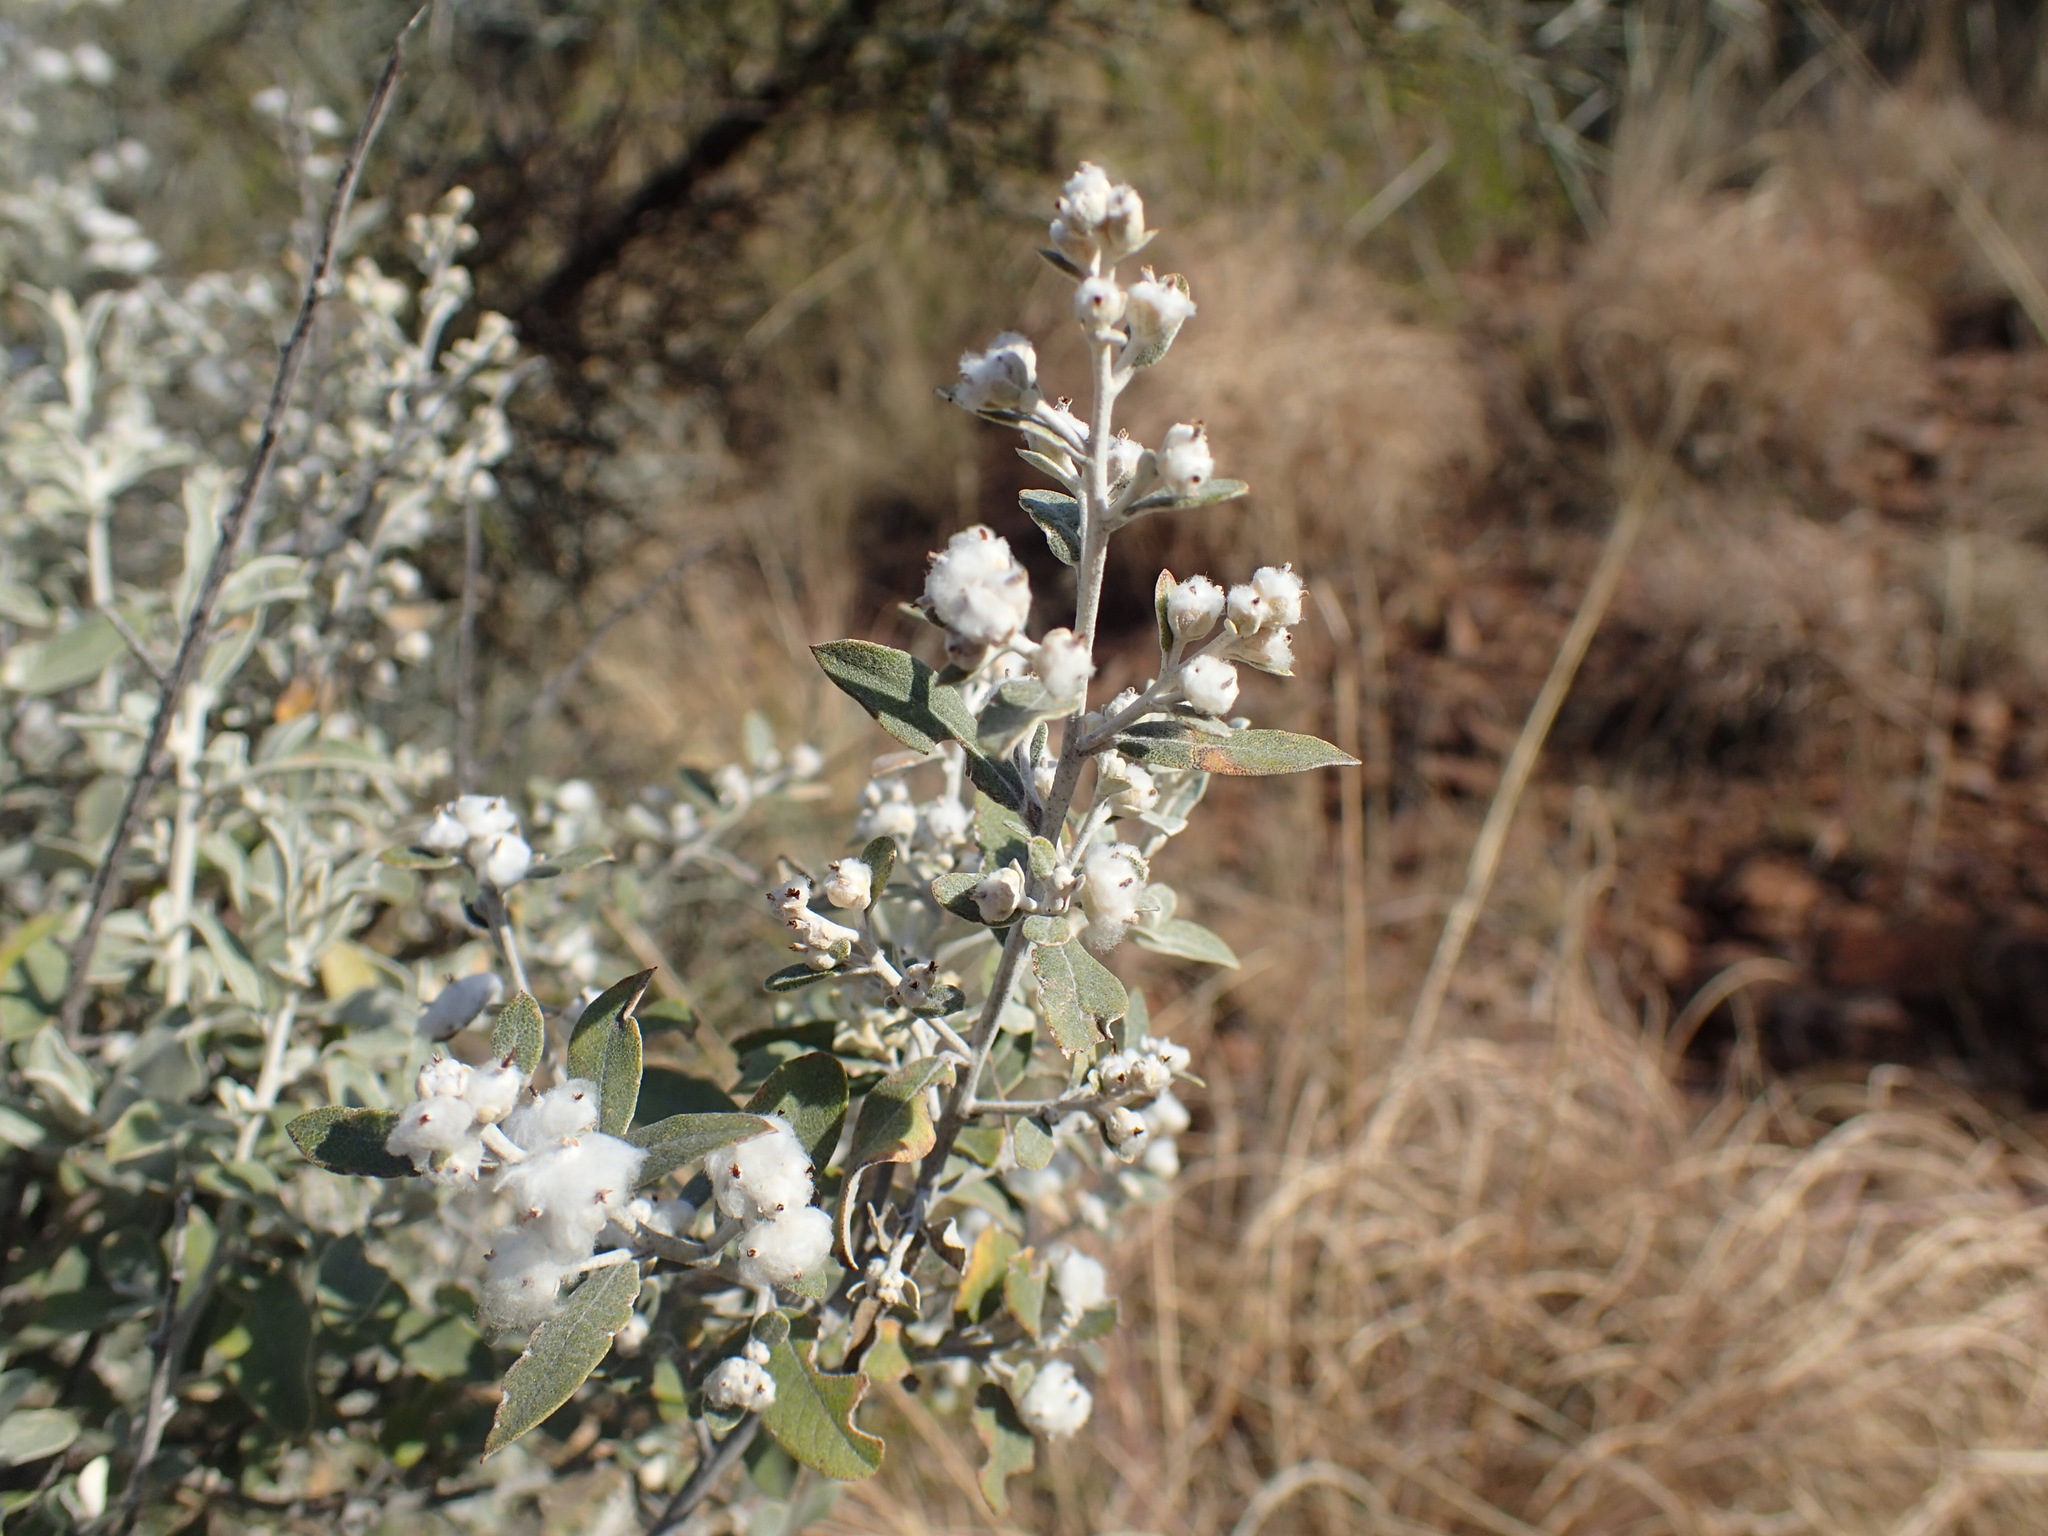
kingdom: Plantae
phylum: Tracheophyta
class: Magnoliopsida
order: Asterales
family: Asteraceae
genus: Tarchonanthus
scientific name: Tarchonanthus camphoratus
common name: Camphorwood
